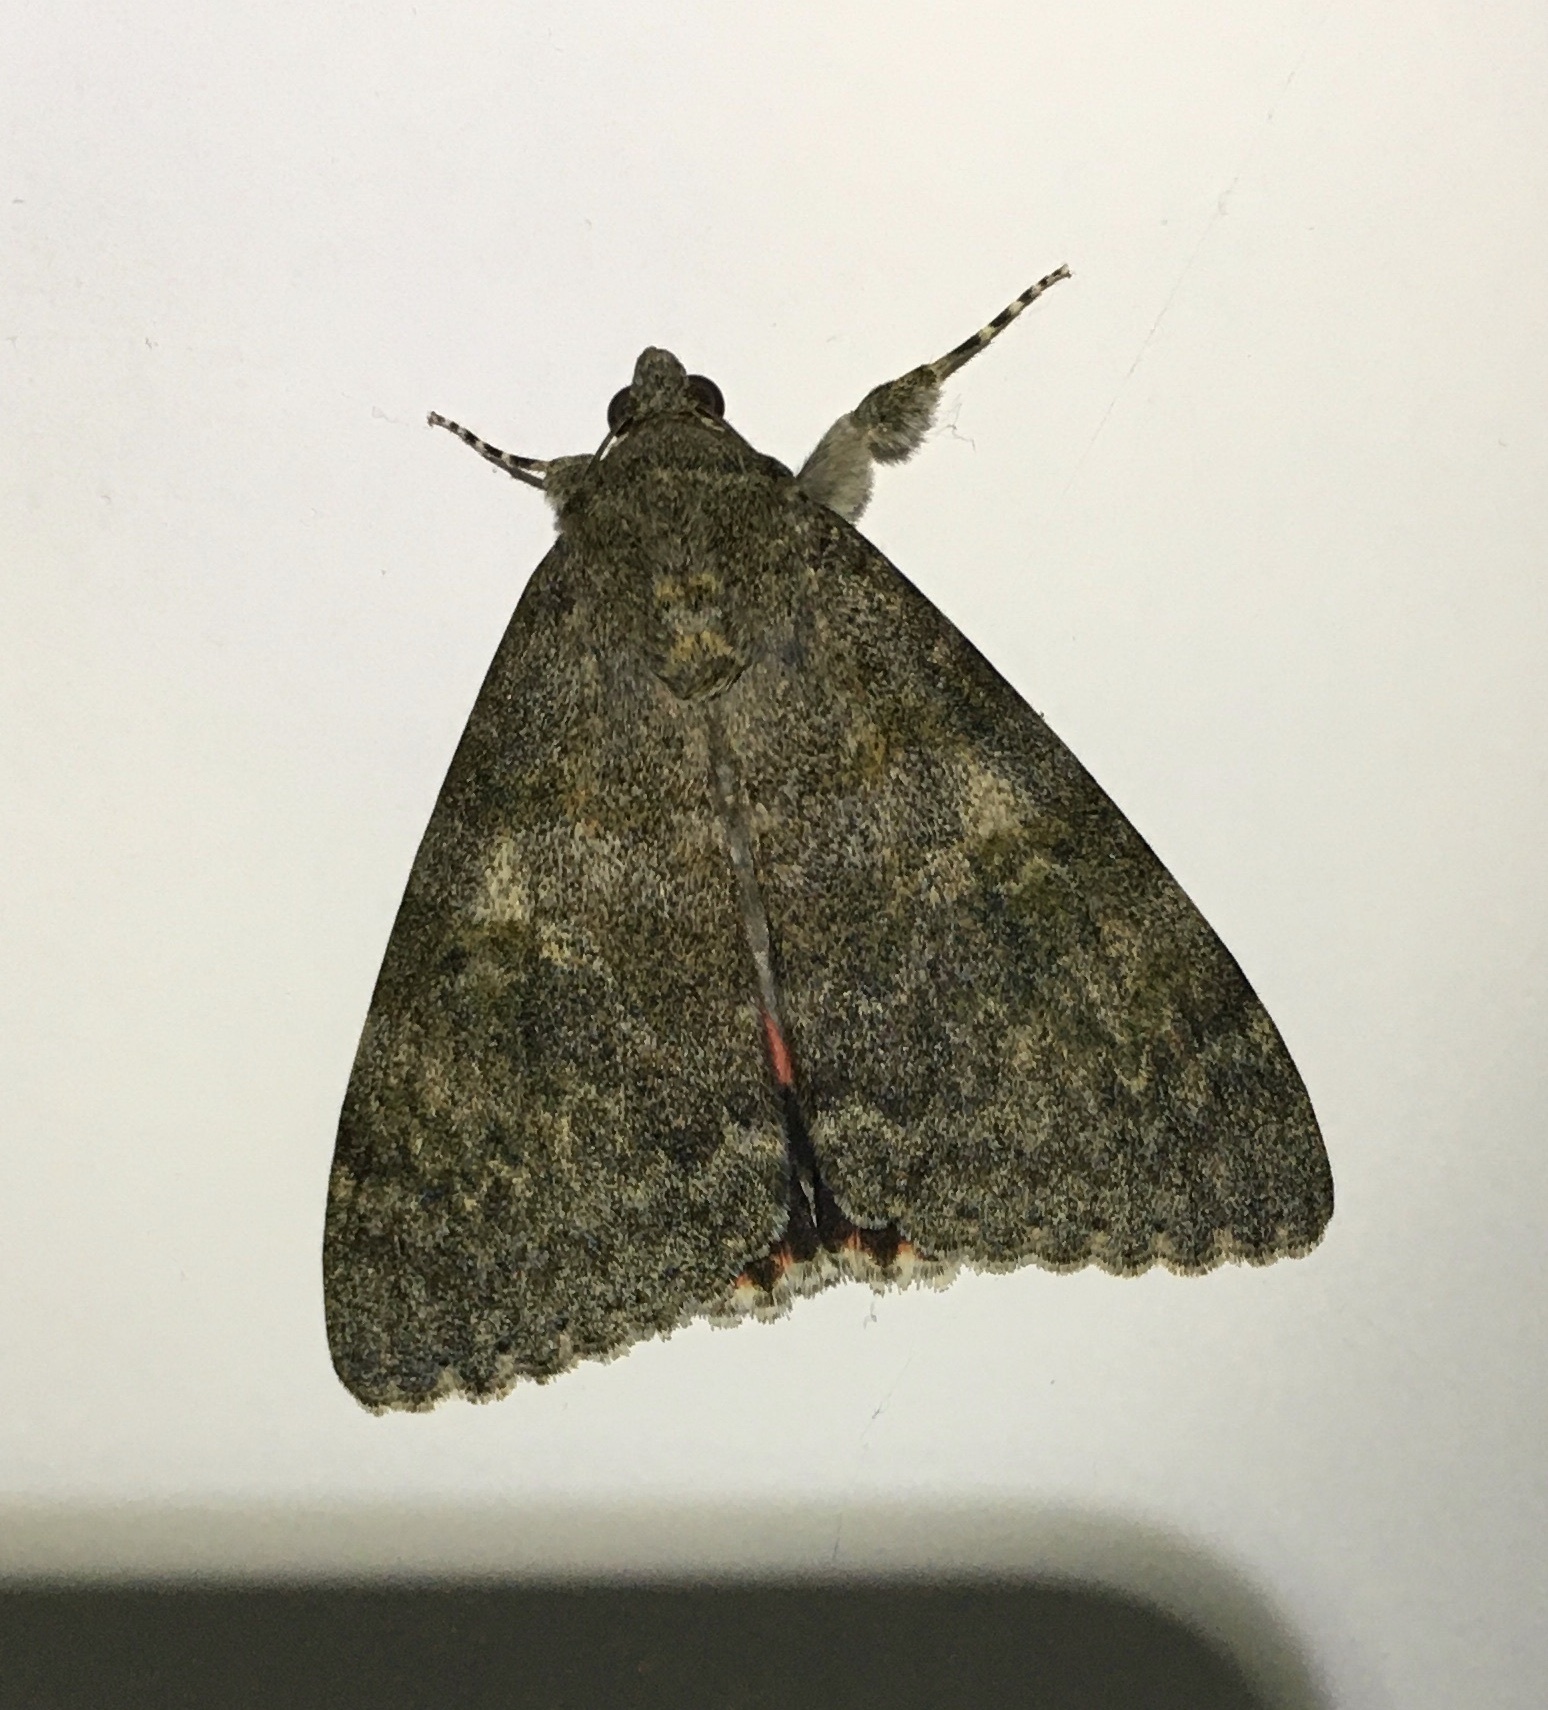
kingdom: Animalia
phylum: Arthropoda
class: Insecta
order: Lepidoptera
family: Erebidae
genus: Catocala
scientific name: Catocala elocata
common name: French red underwing
